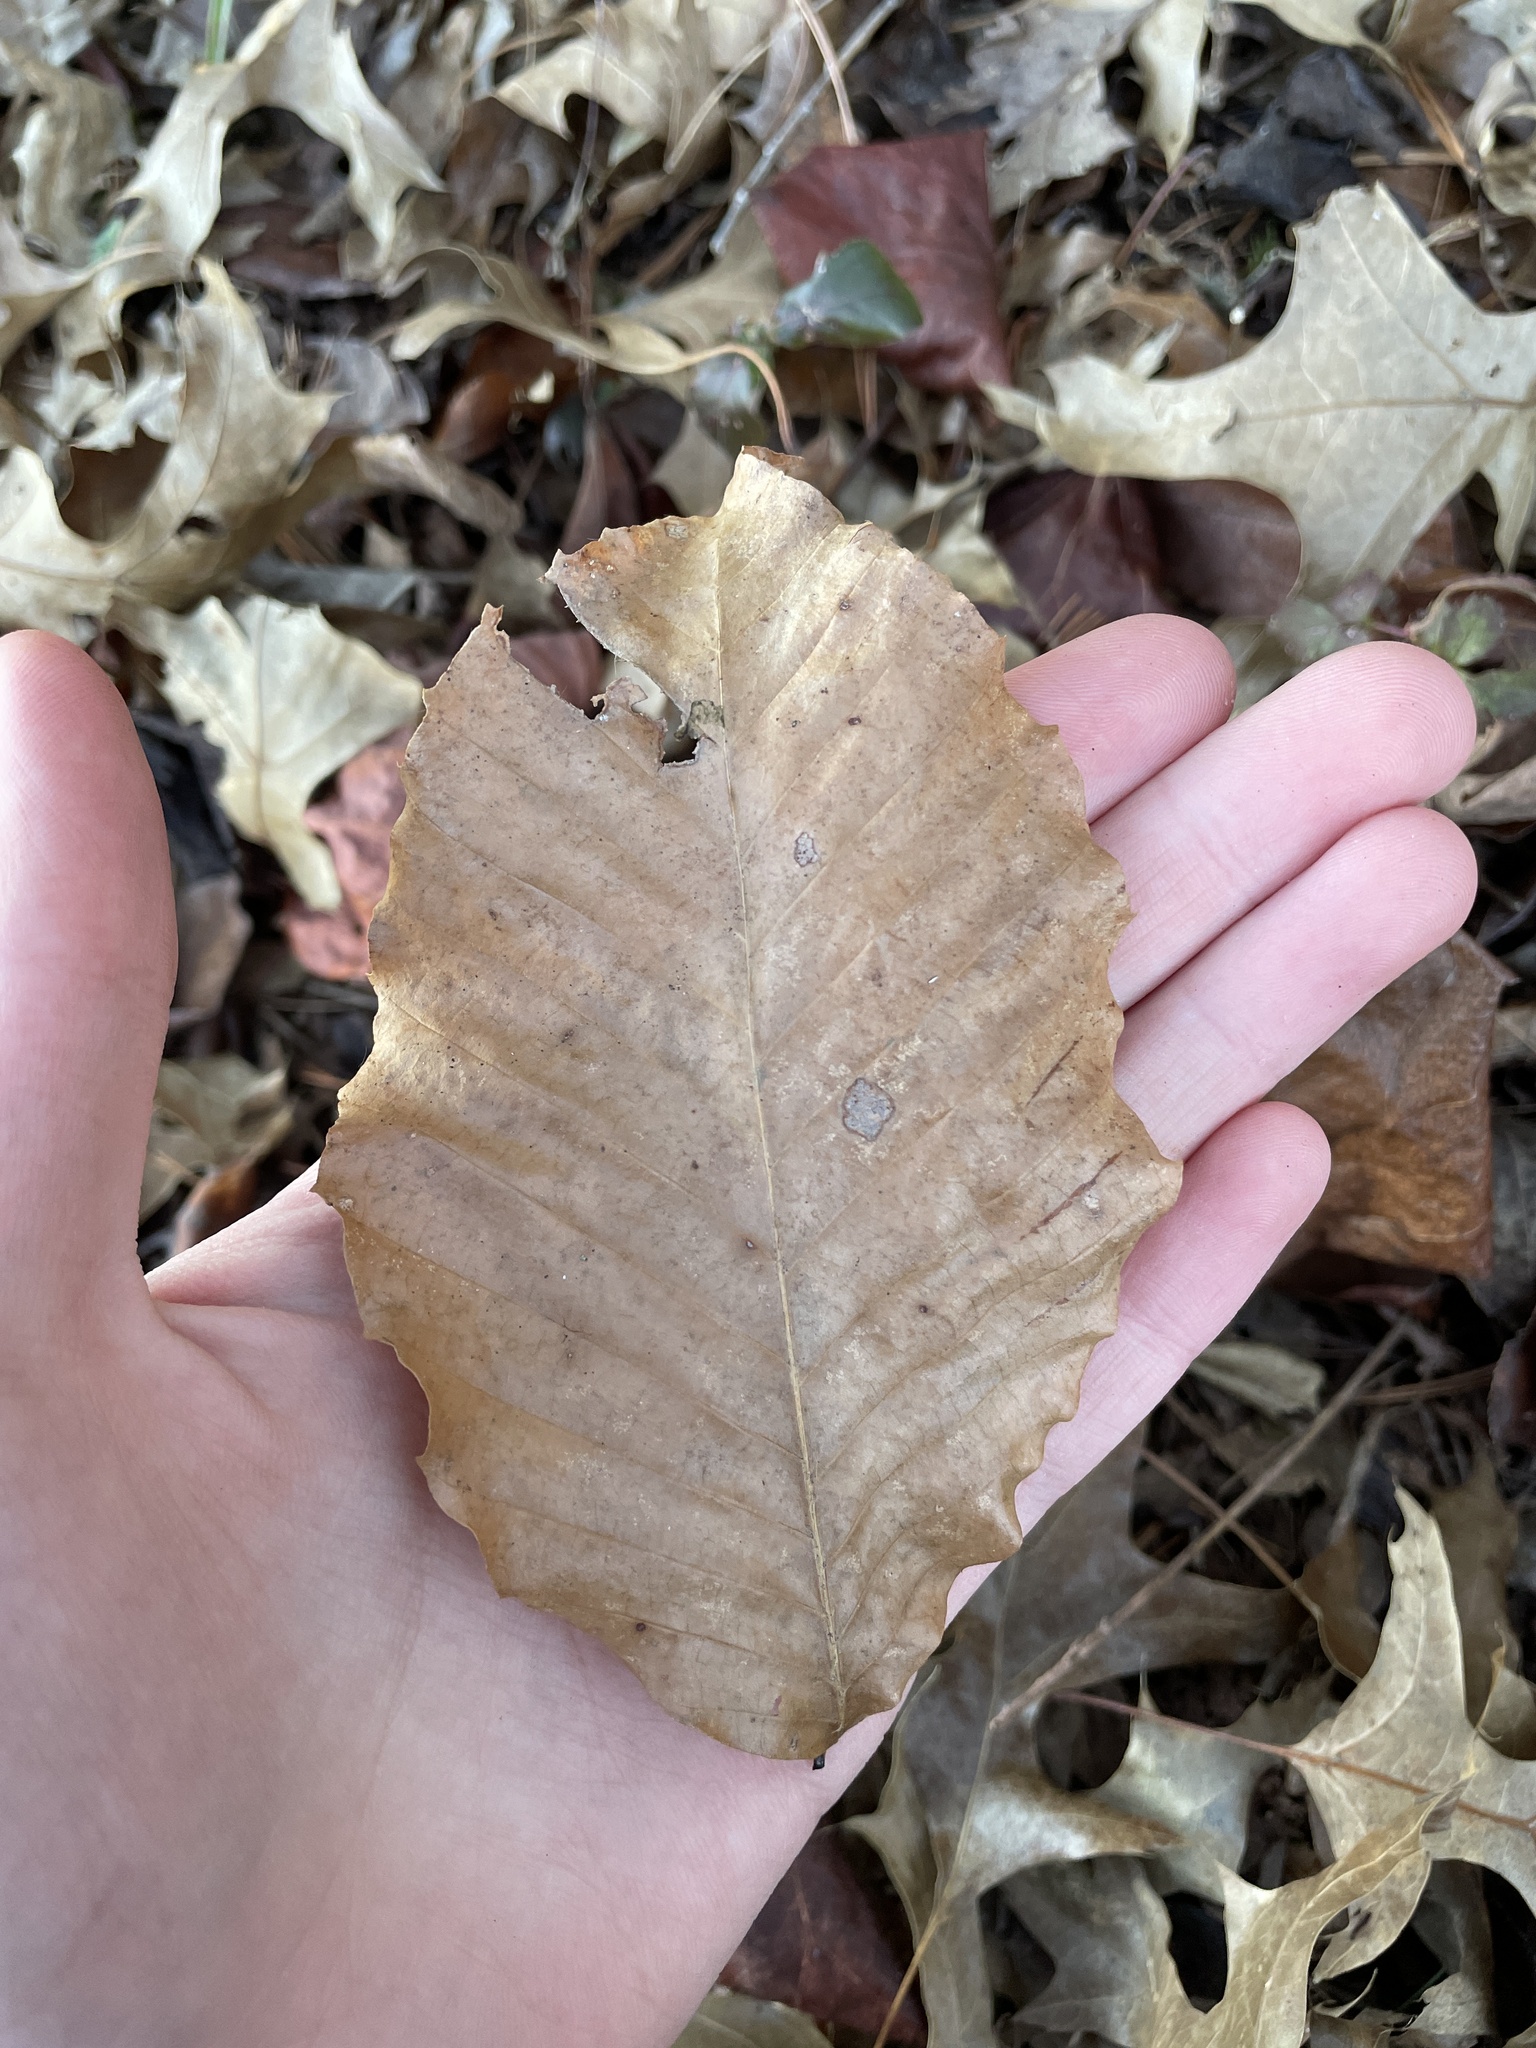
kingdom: Plantae
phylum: Tracheophyta
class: Magnoliopsida
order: Fagales
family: Fagaceae
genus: Fagus
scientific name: Fagus grandifolia
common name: American beech
